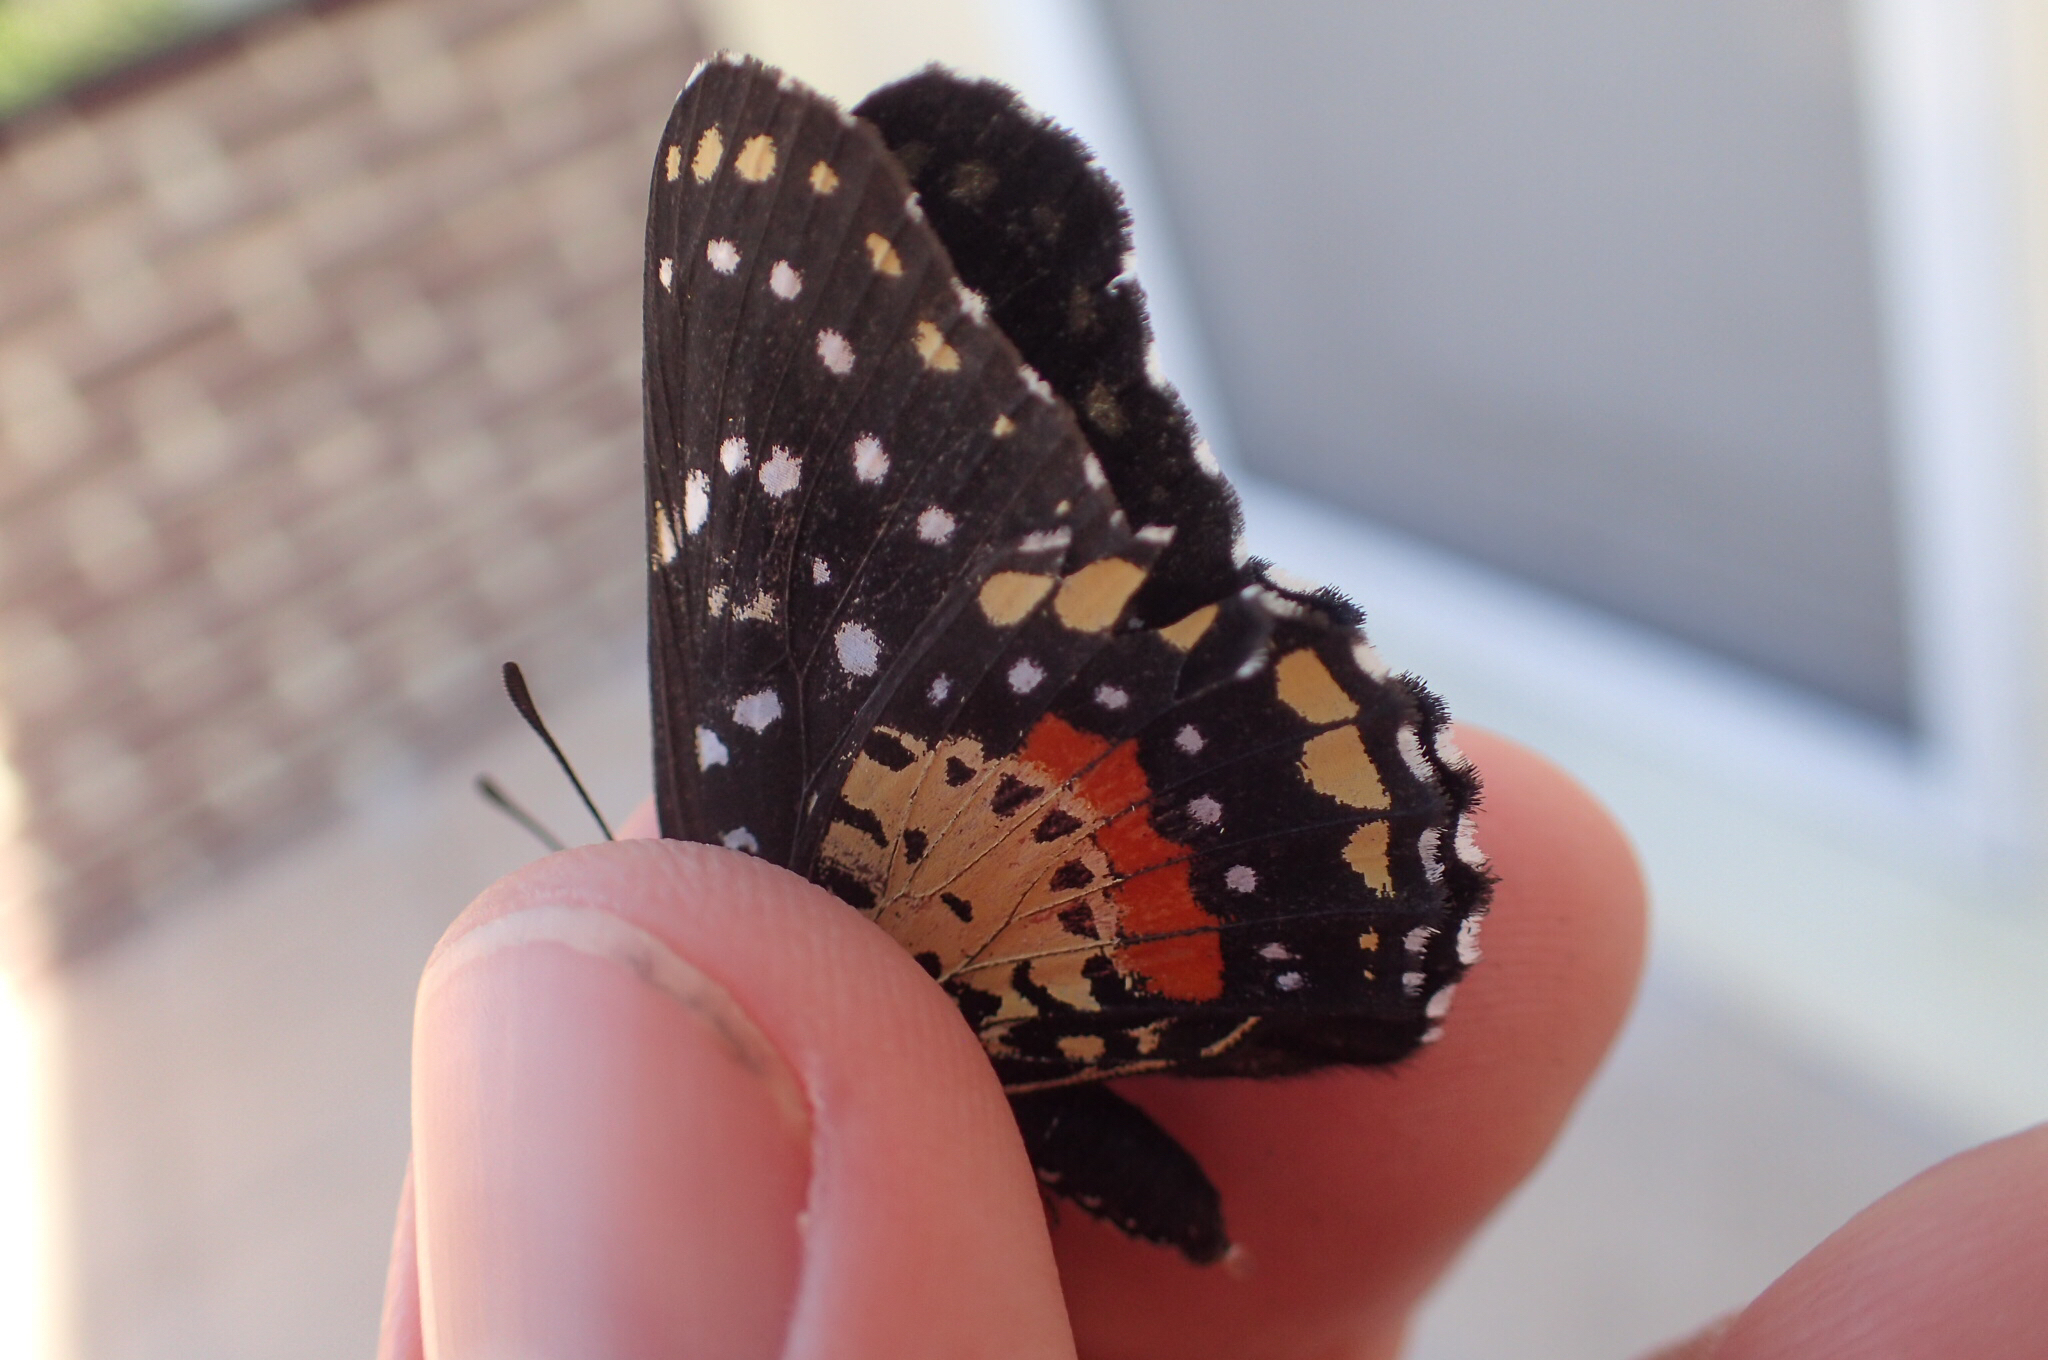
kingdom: Animalia
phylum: Arthropoda
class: Insecta
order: Lepidoptera
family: Nymphalidae
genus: Chlosyne
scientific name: Chlosyne janais
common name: Crimson patch
